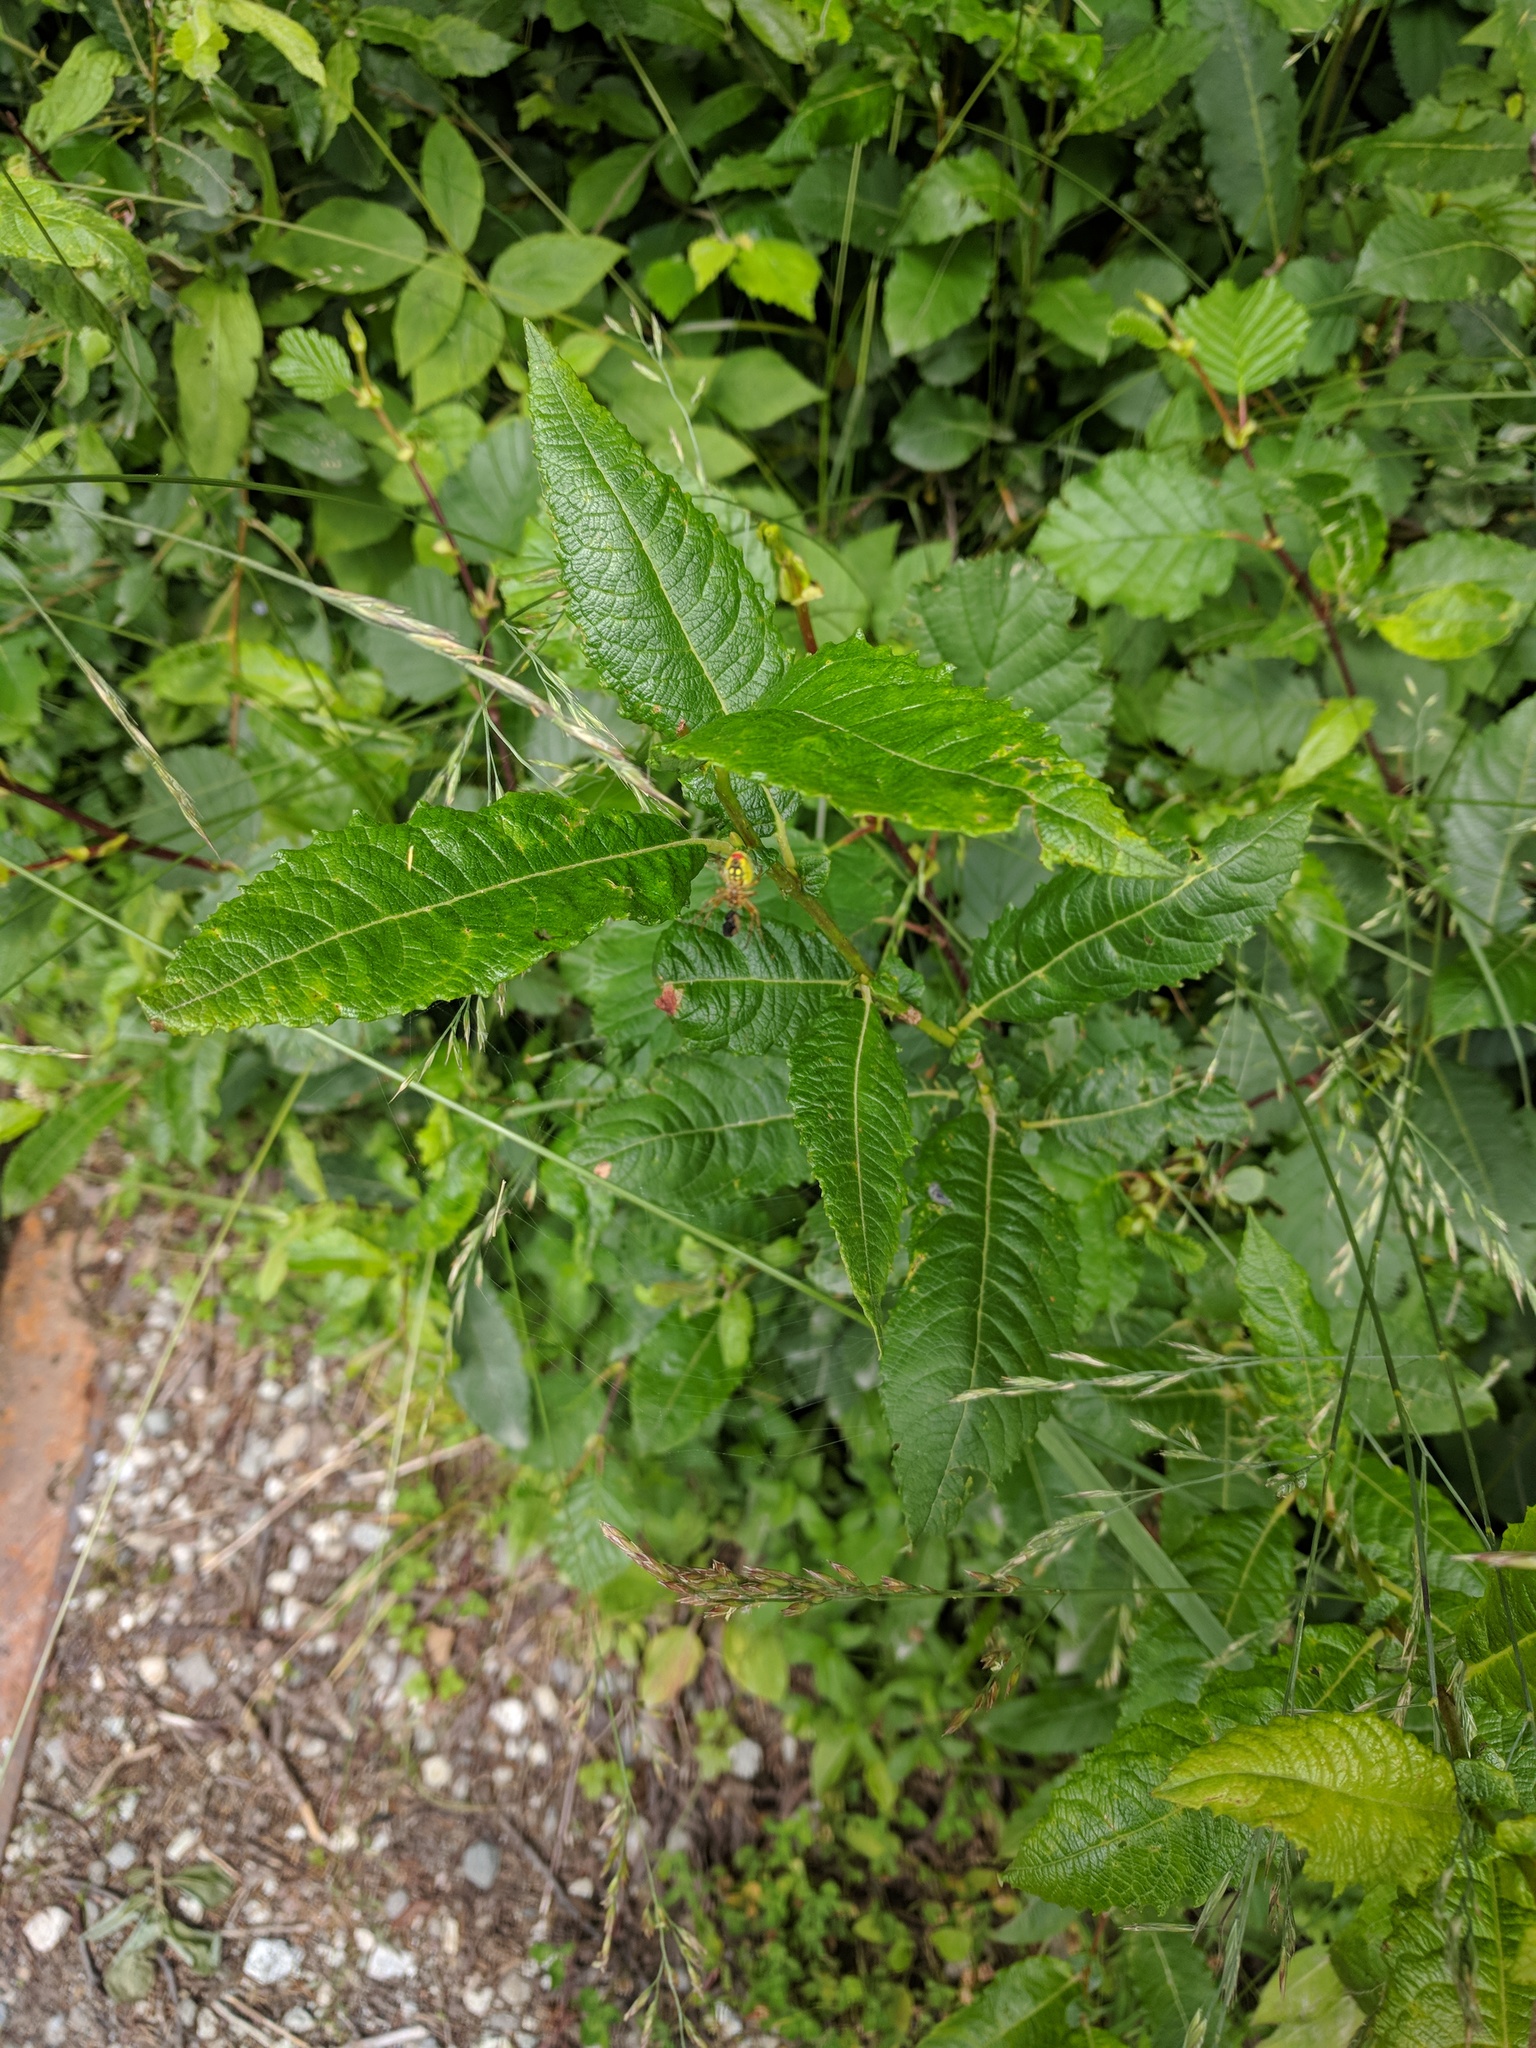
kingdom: Animalia
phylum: Arthropoda
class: Arachnida
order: Araneae
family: Araneidae
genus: Araniella
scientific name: Araniella alpica
